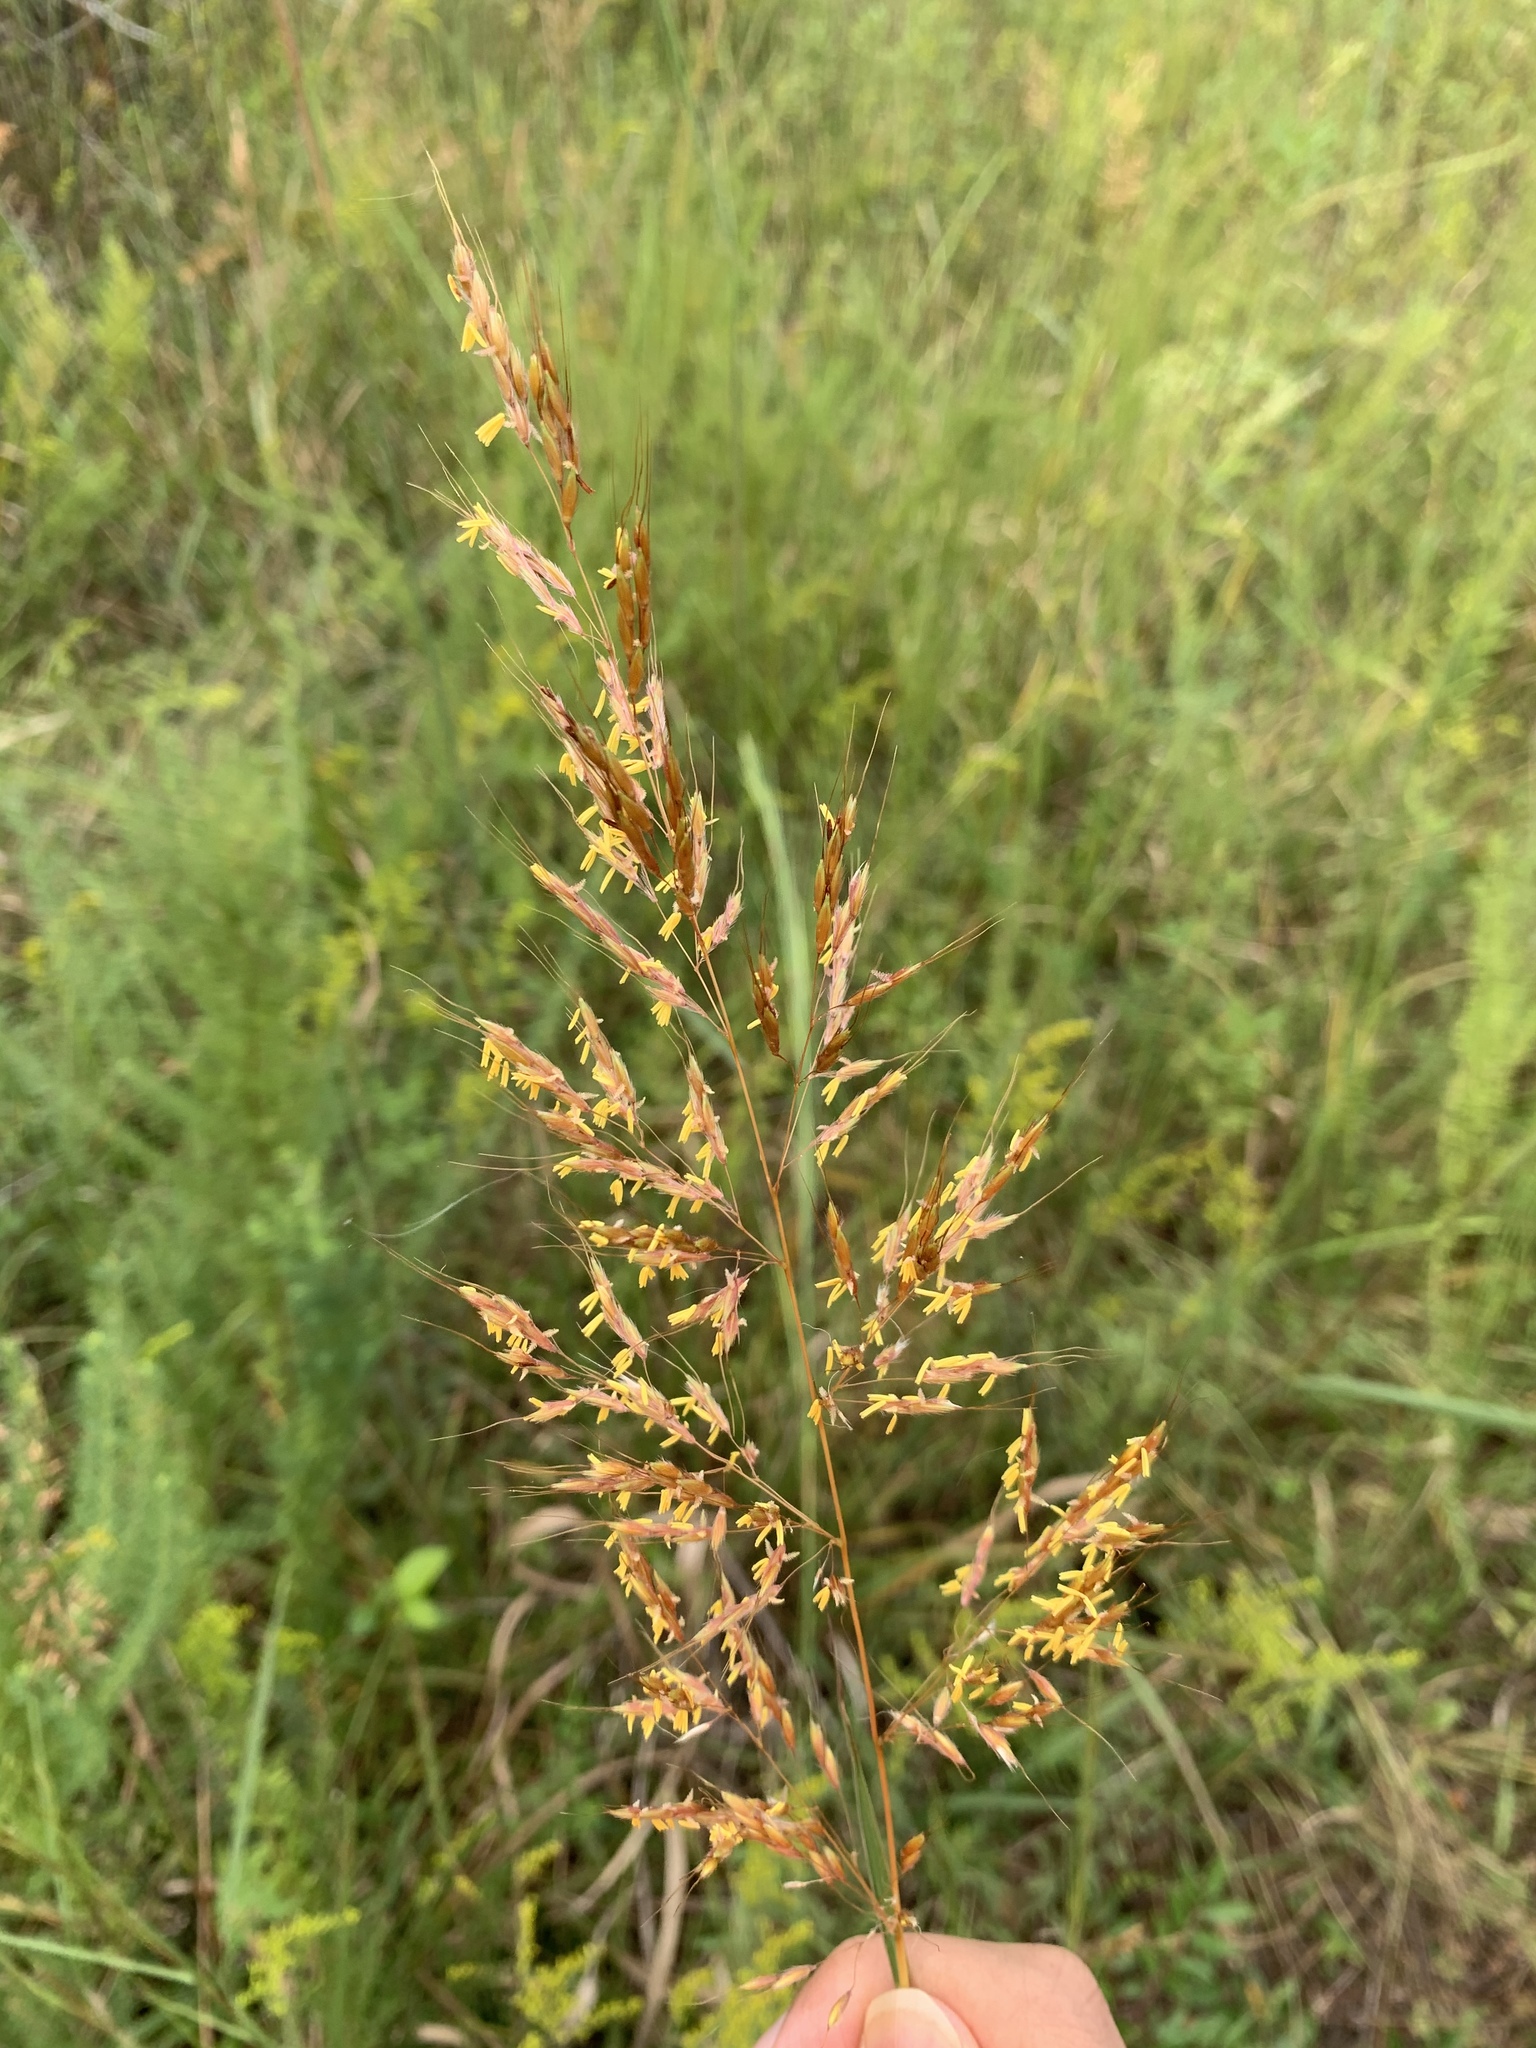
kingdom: Plantae
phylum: Tracheophyta
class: Liliopsida
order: Poales
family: Poaceae
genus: Sorghastrum
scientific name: Sorghastrum nutans
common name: Indian grass
